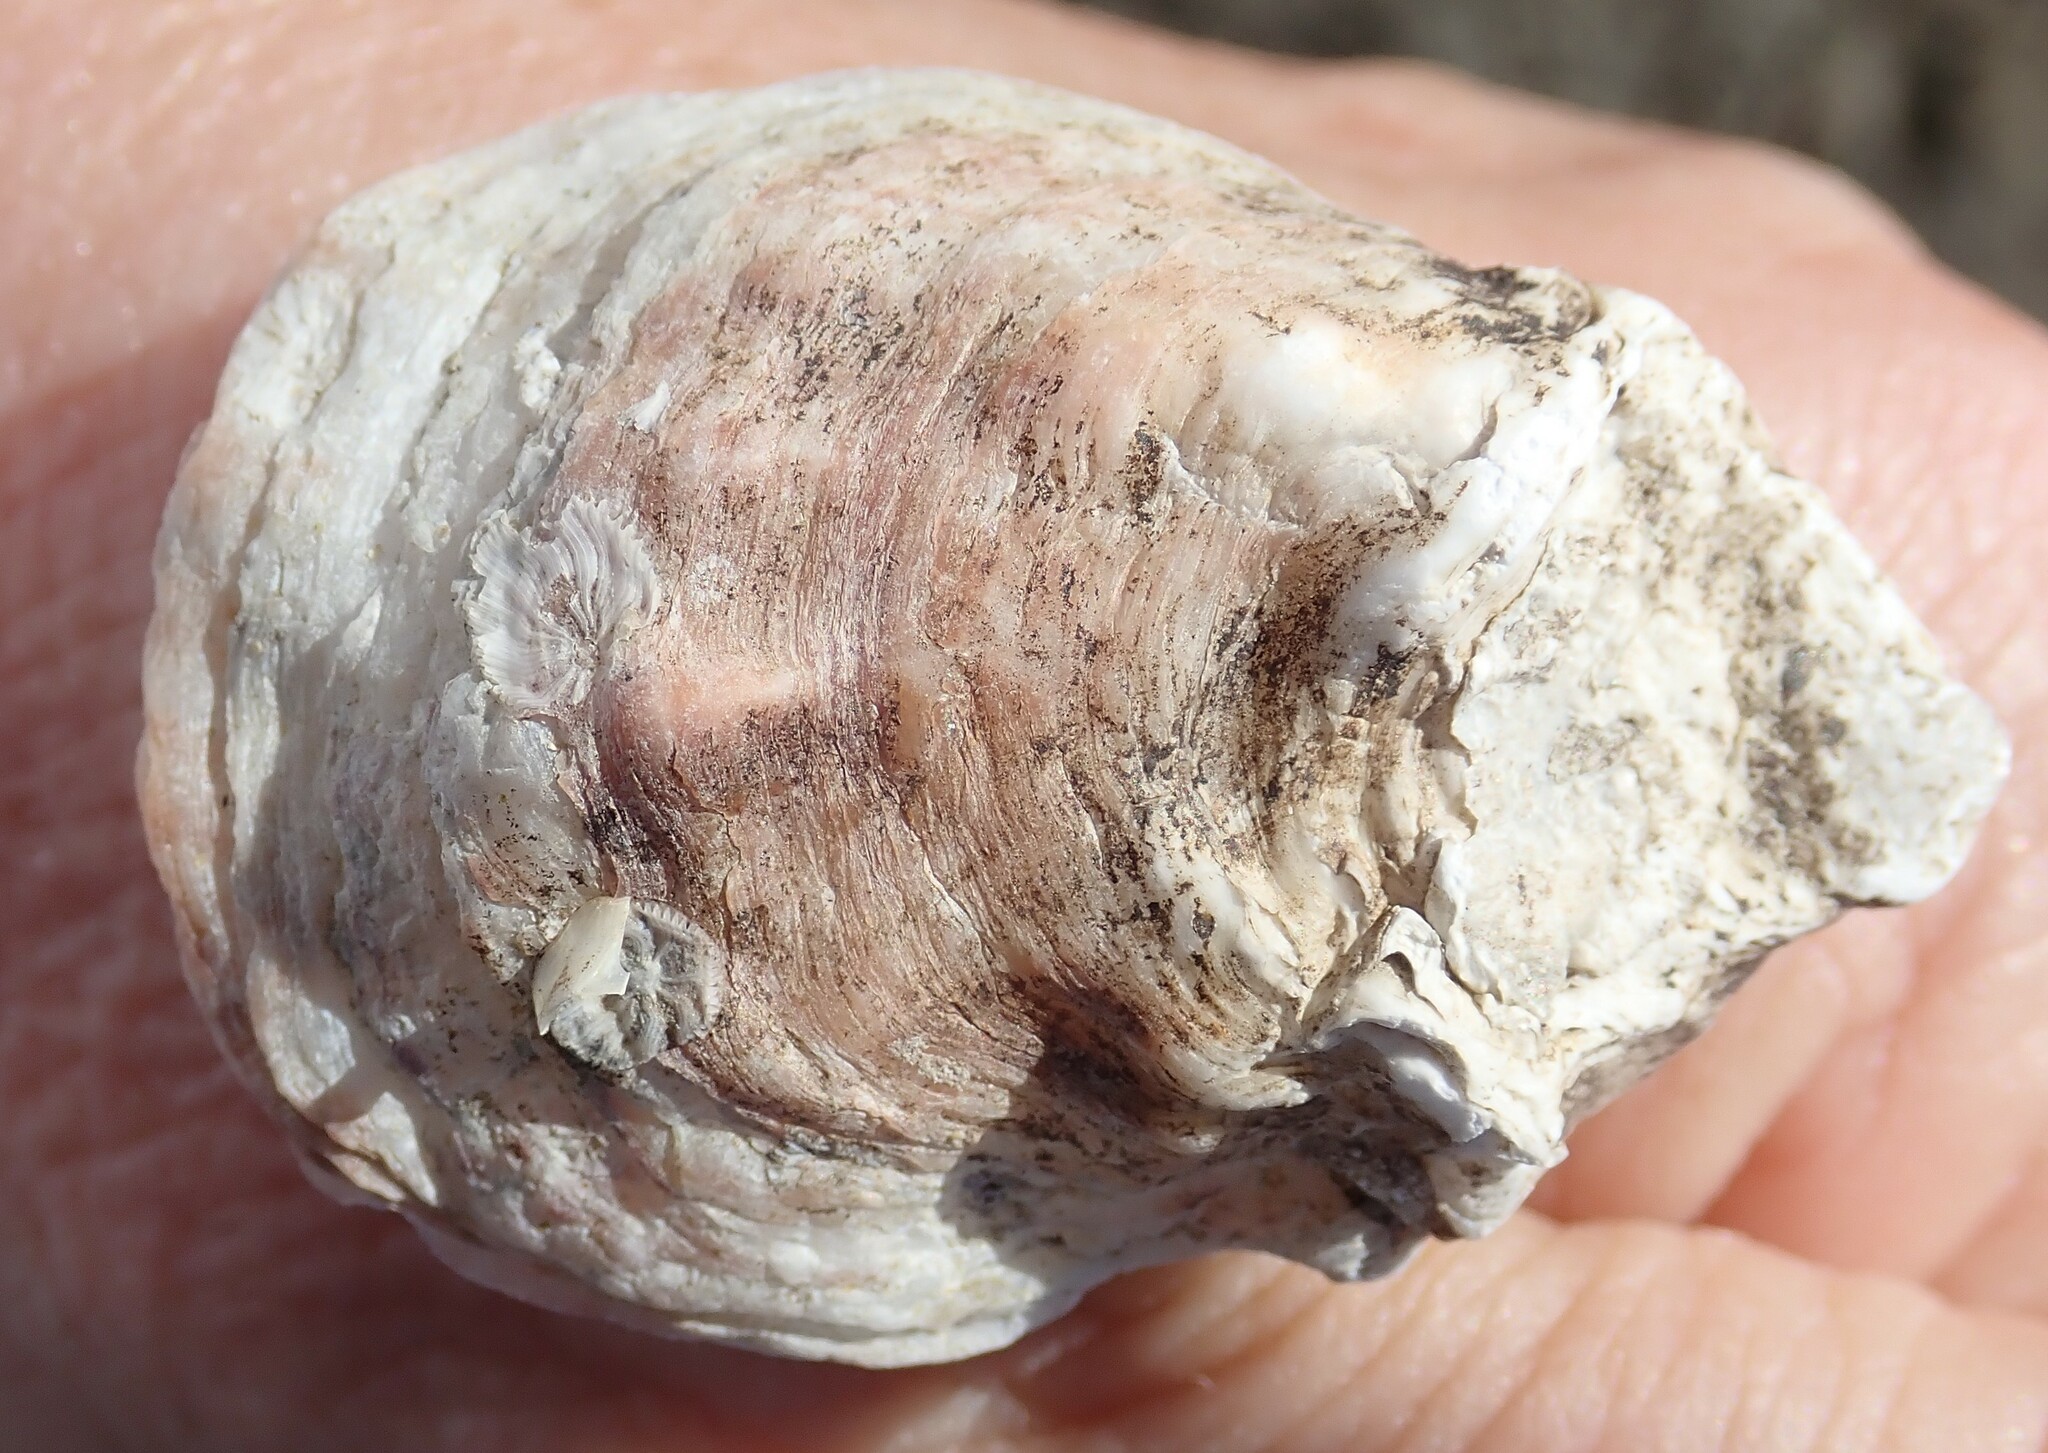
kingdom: Animalia
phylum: Mollusca
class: Bivalvia
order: Ostreida
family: Ostreidae
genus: Ostrea
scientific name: Ostrea lurida
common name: Olympia flat oyster
